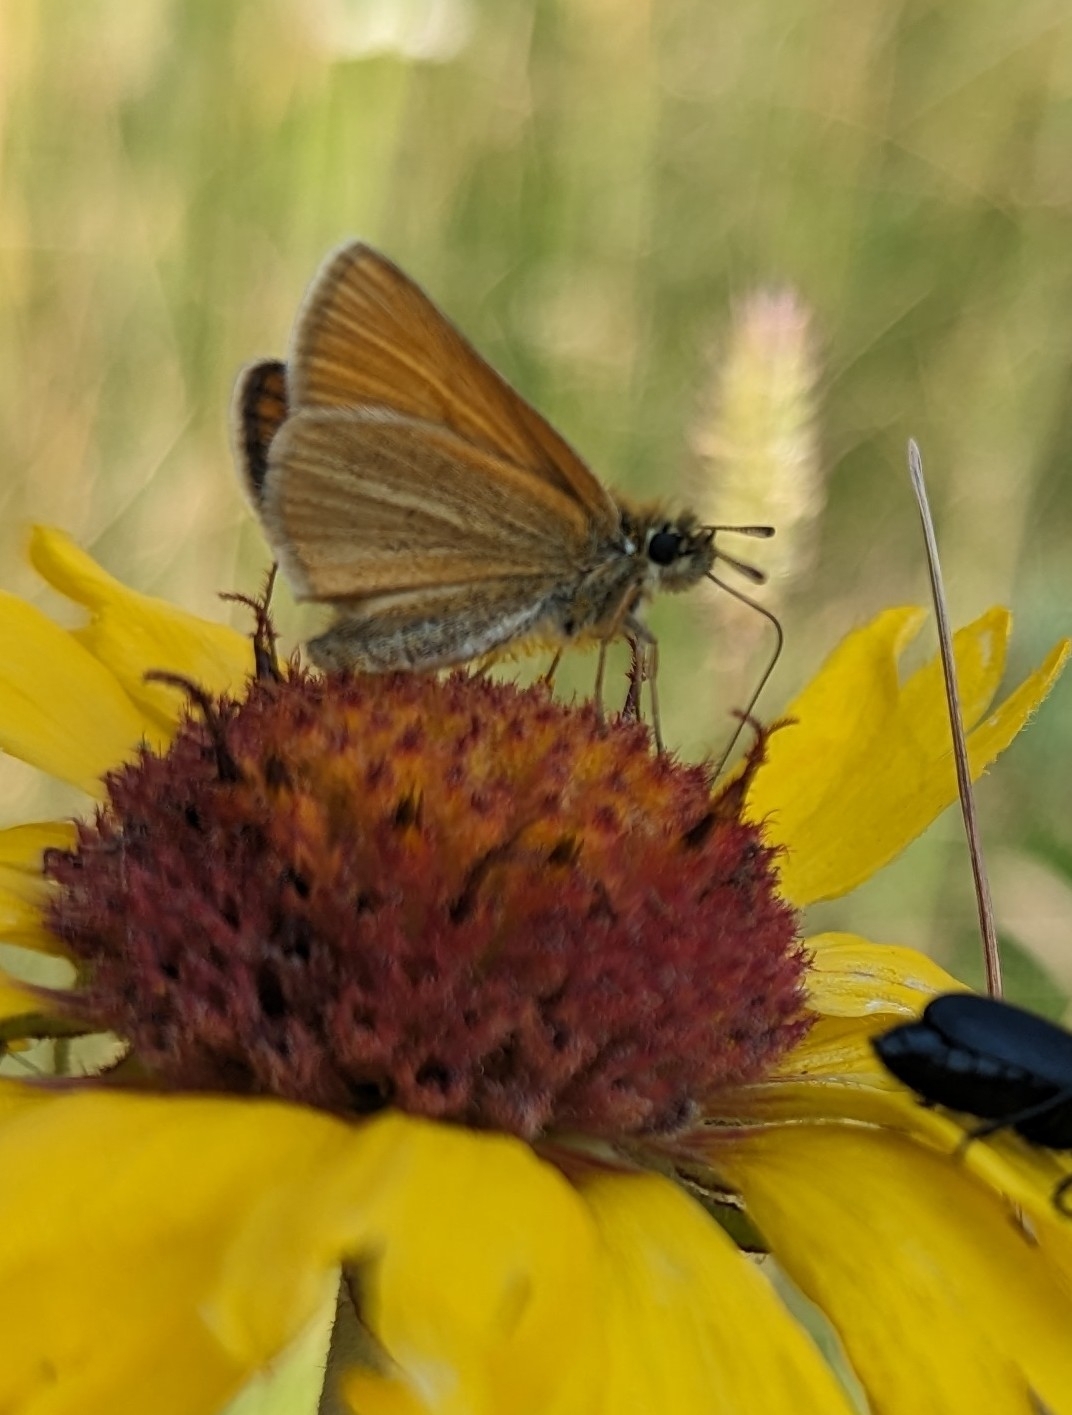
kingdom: Animalia
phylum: Arthropoda
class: Insecta
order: Lepidoptera
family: Hesperiidae
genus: Thymelicus
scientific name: Thymelicus lineola
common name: Essex skipper
